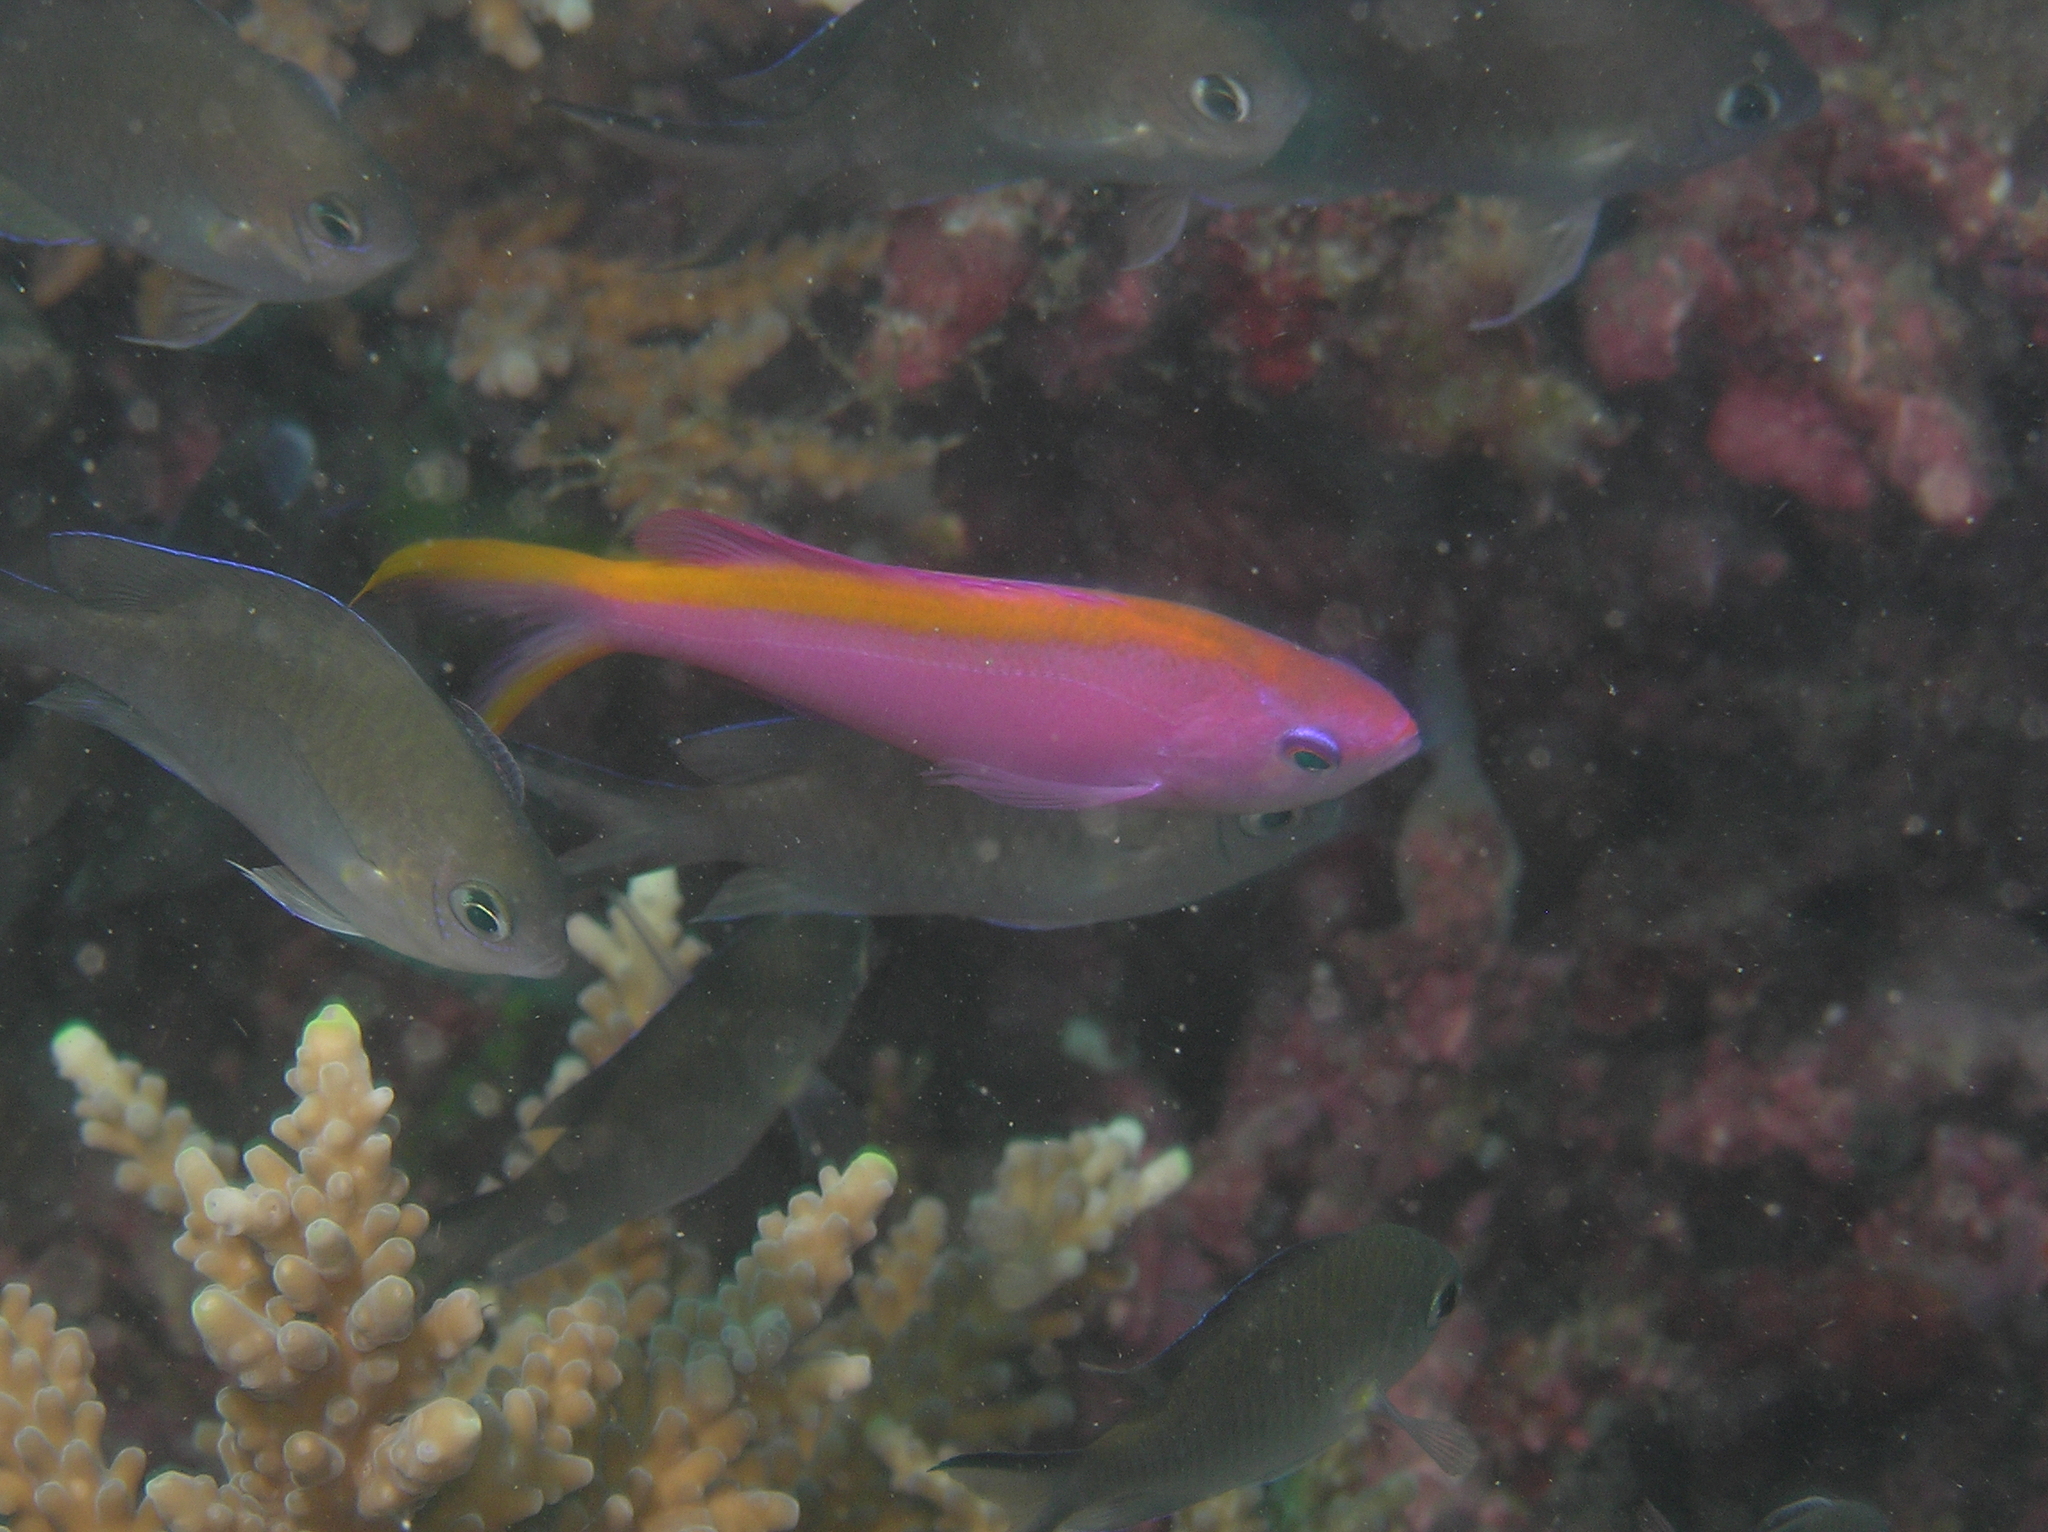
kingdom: Animalia
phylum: Chordata
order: Perciformes
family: Serranidae
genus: Pseudanthias
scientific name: Pseudanthias tuka
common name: Purple queen
